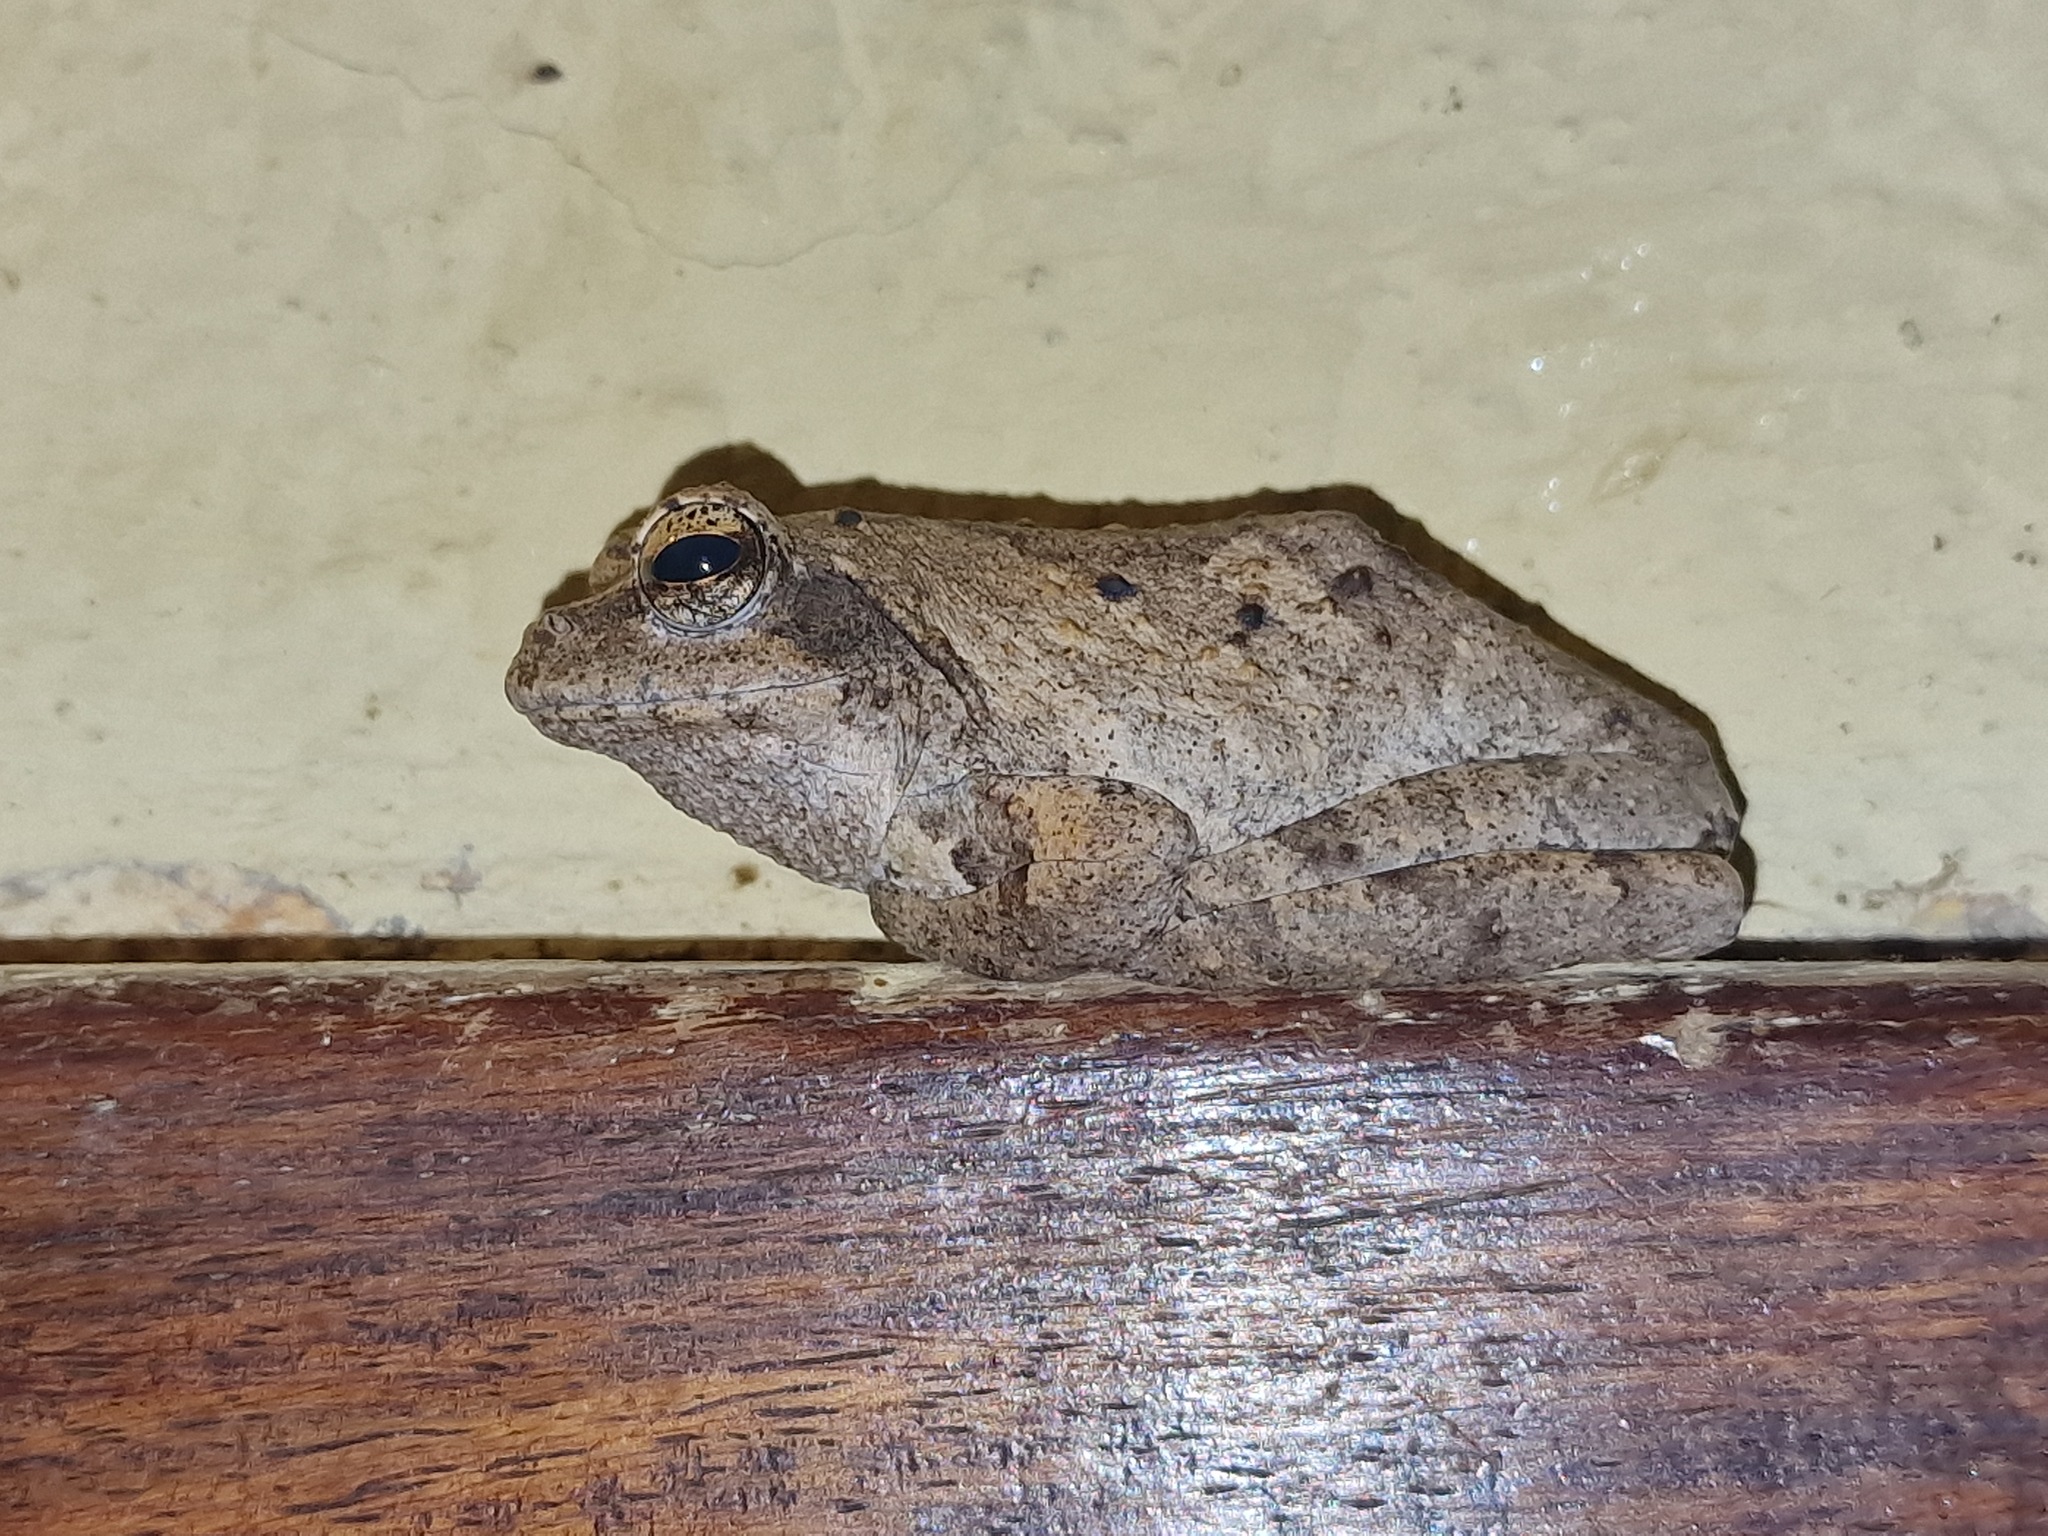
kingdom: Animalia
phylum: Chordata
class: Amphibia
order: Anura
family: Rhacophoridae
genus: Chiromantis
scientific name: Chiromantis xerampelina
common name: African gray treefrog
